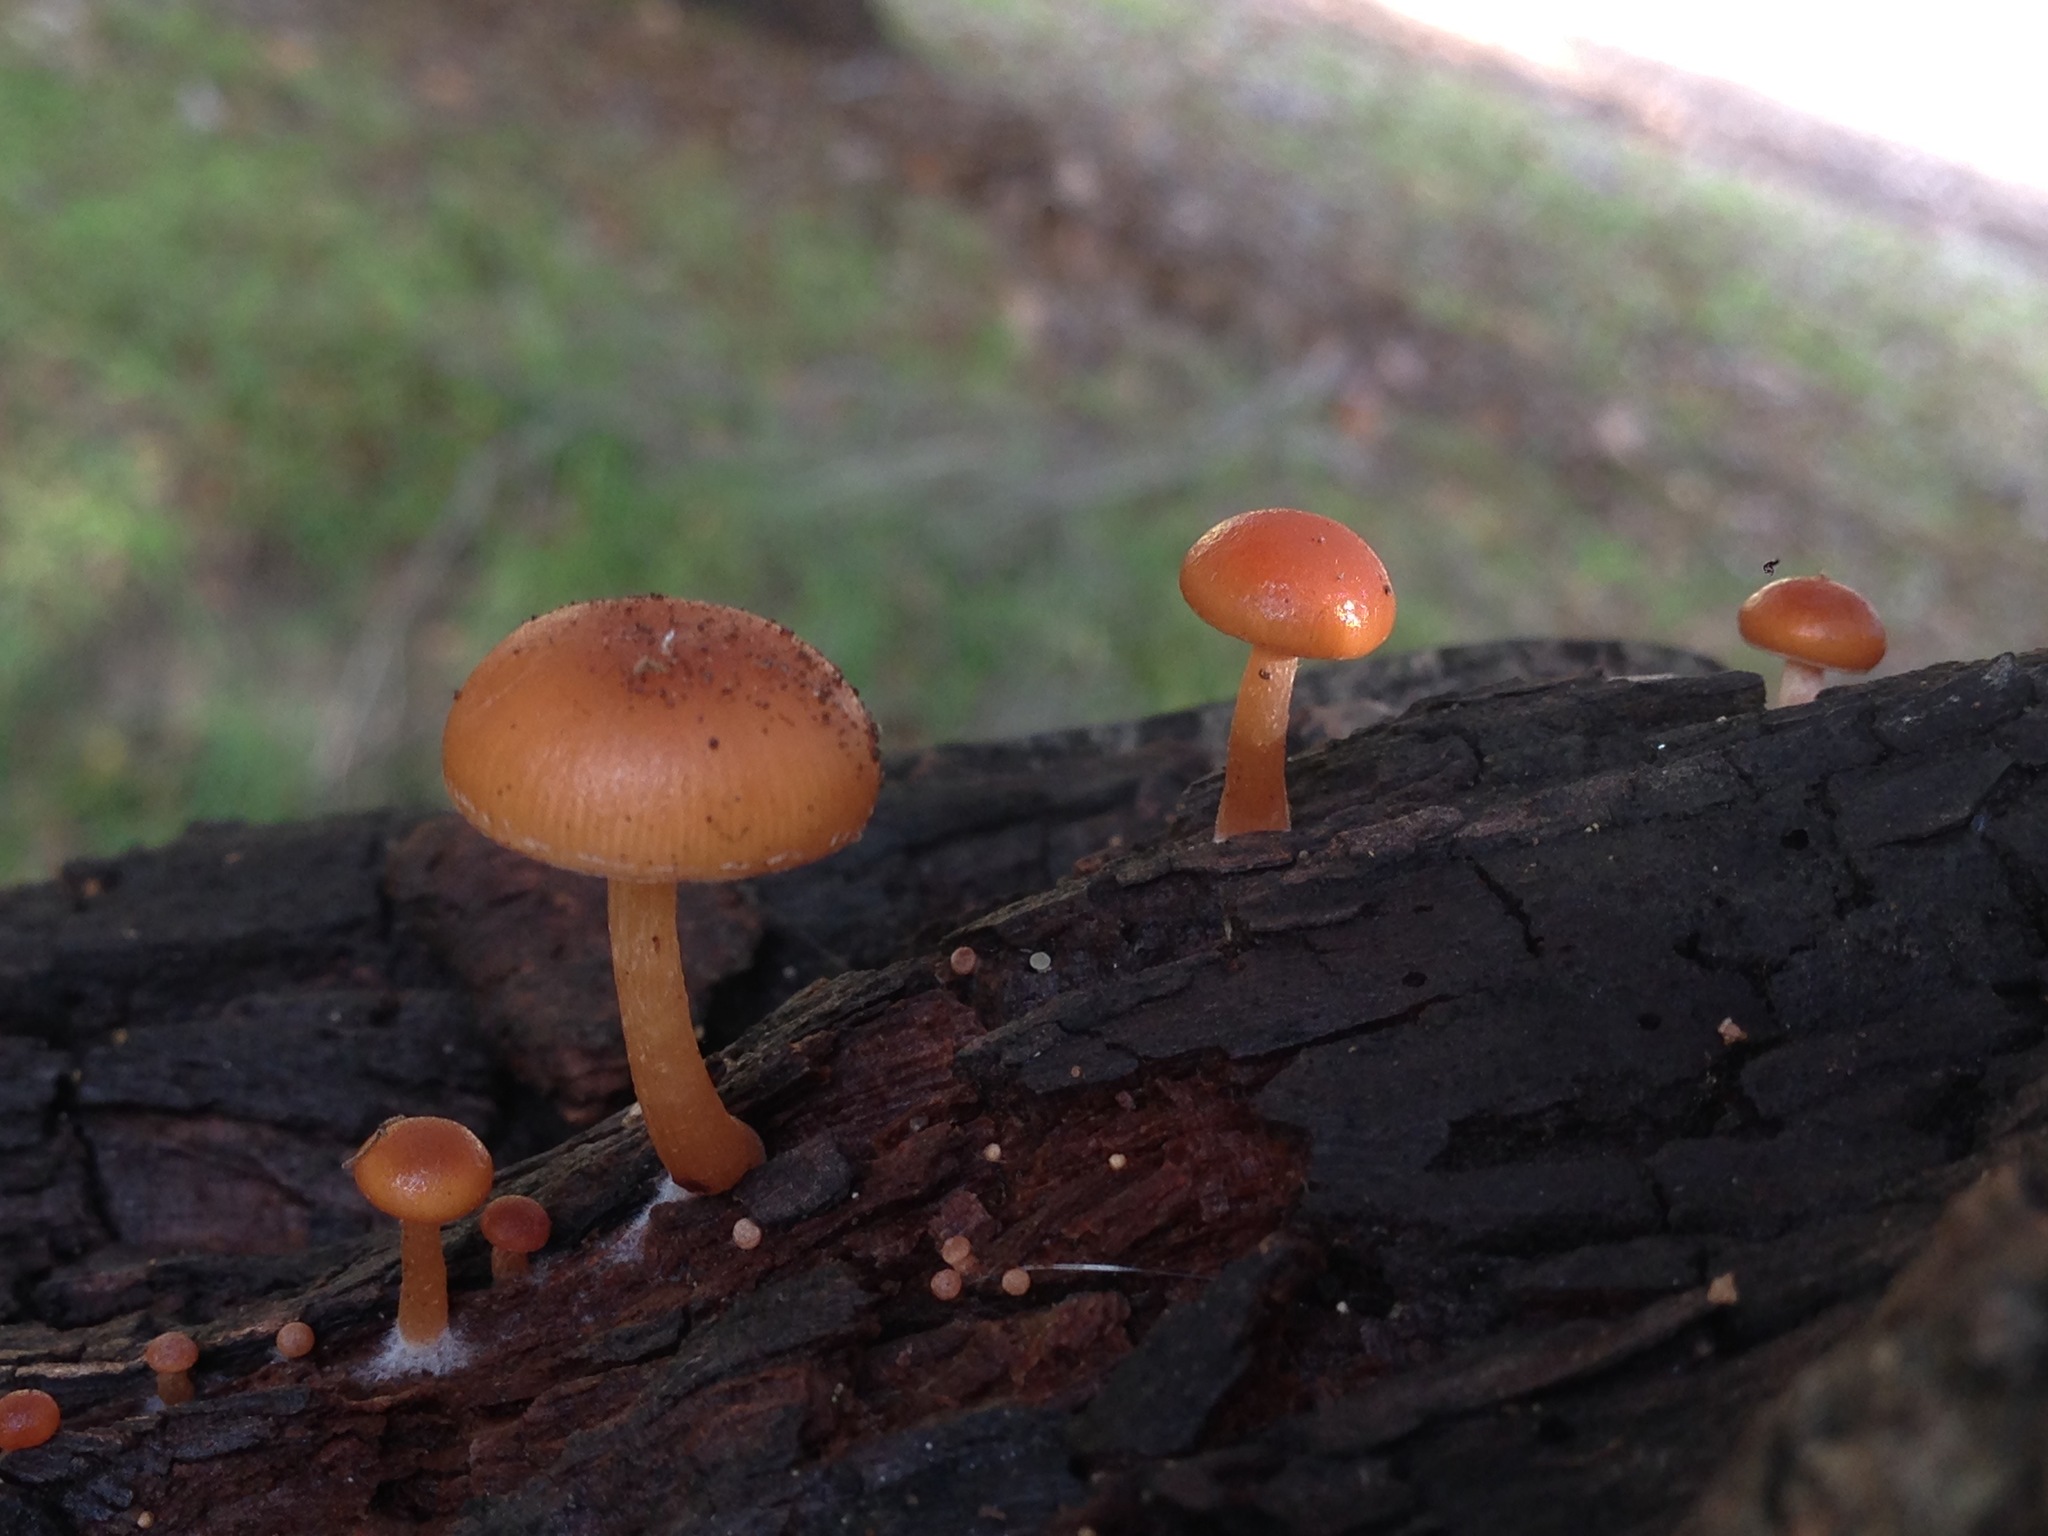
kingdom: Fungi
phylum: Basidiomycota
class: Agaricomycetes
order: Agaricales
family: Tubariaceae
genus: Tubaria
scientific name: Tubaria furfuracea
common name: Scurfy twiglet
